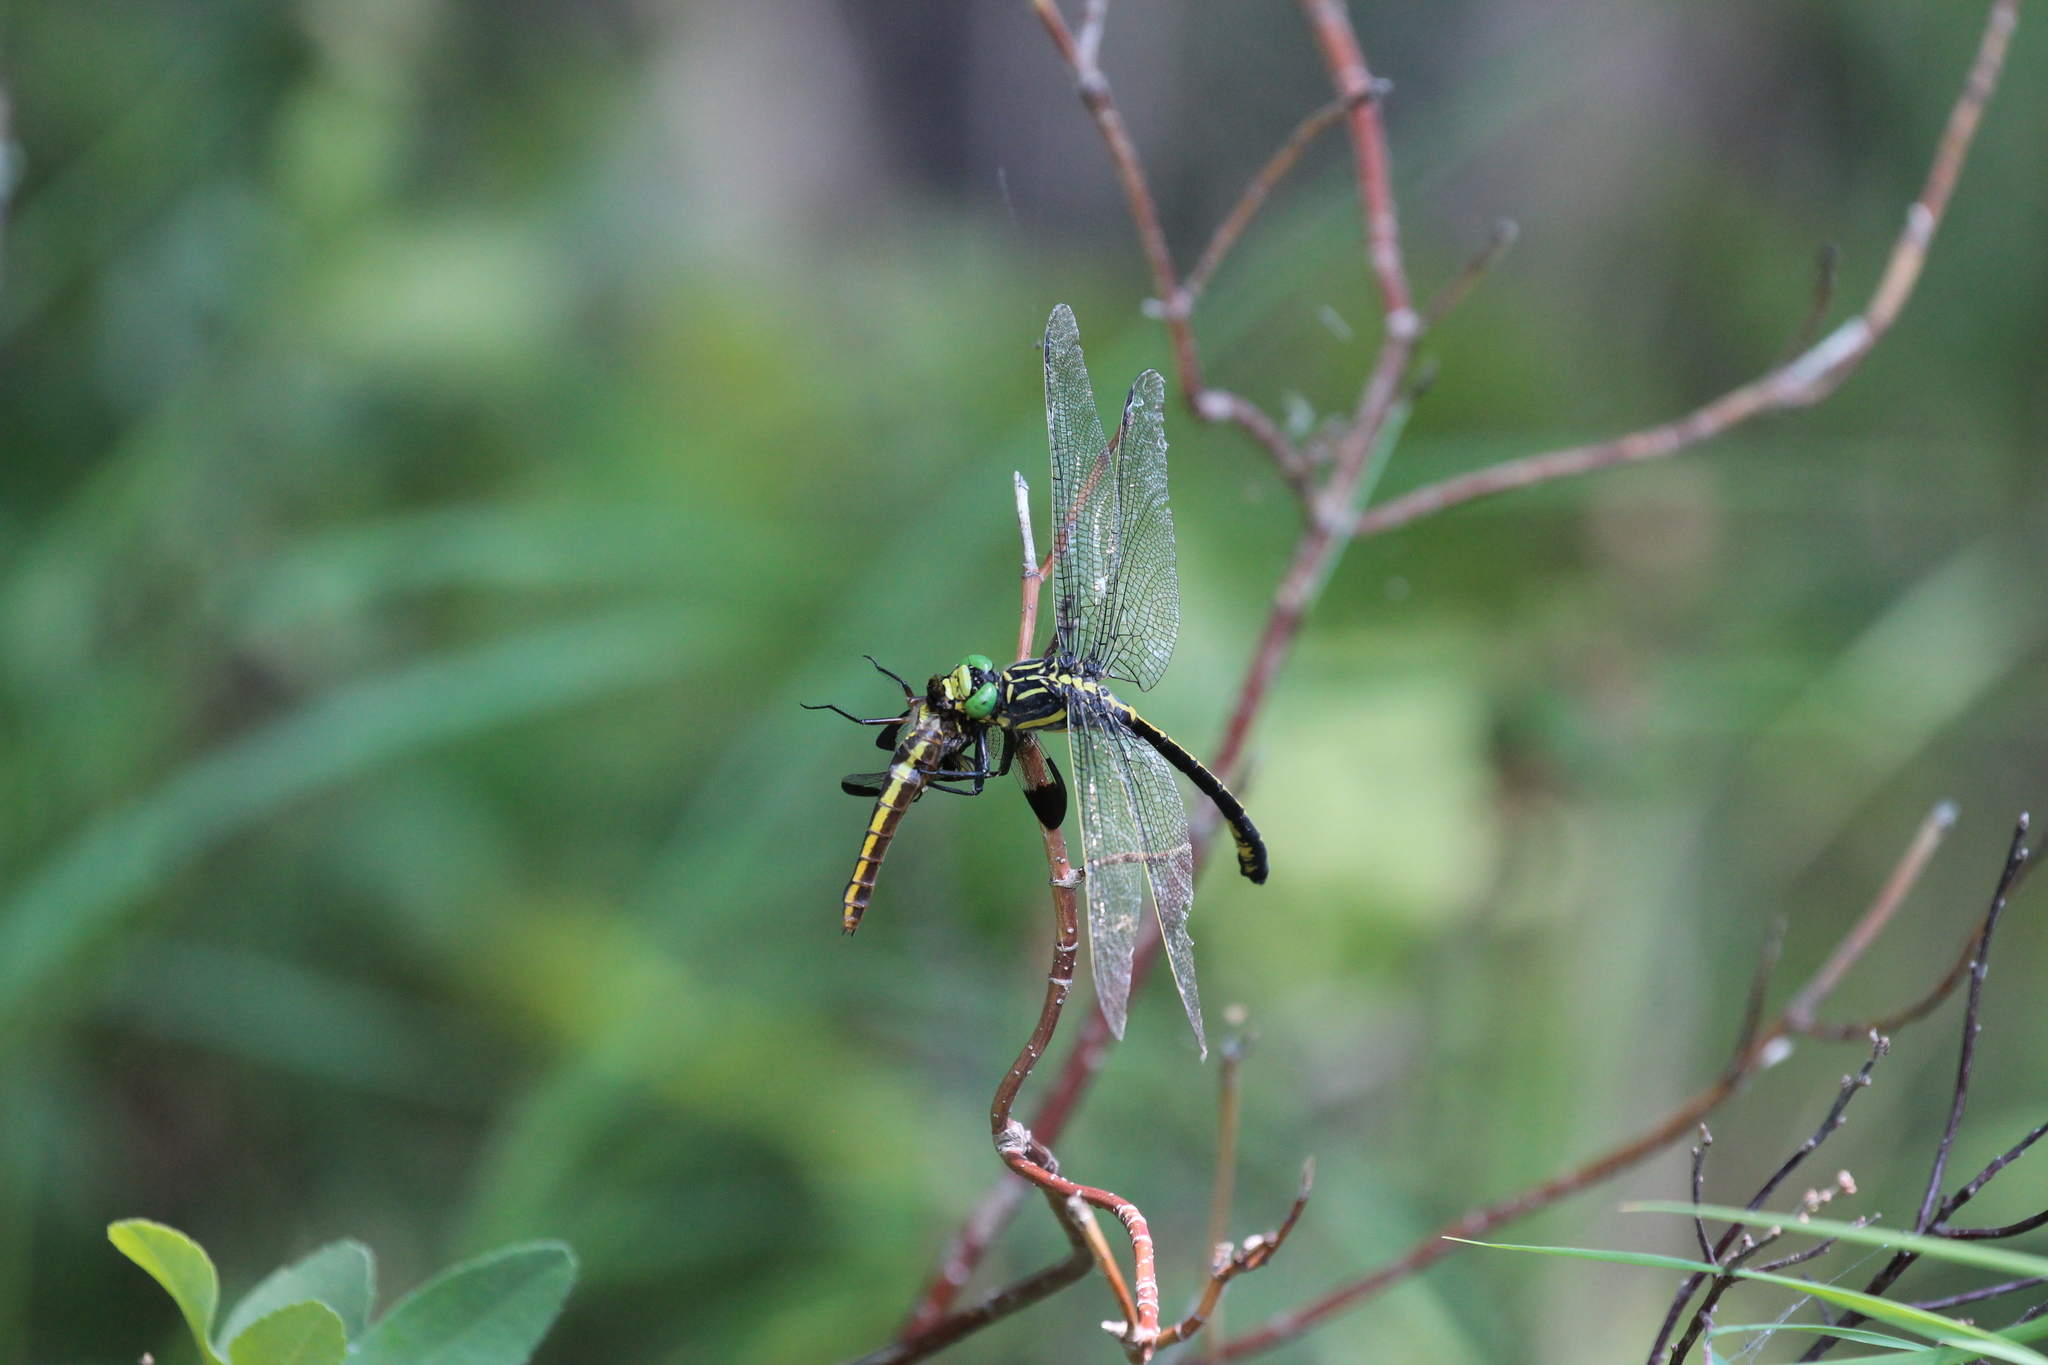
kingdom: Animalia
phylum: Arthropoda
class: Insecta
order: Odonata
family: Gomphidae
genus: Hagenius
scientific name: Hagenius brevistylus
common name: Dragonhunter
